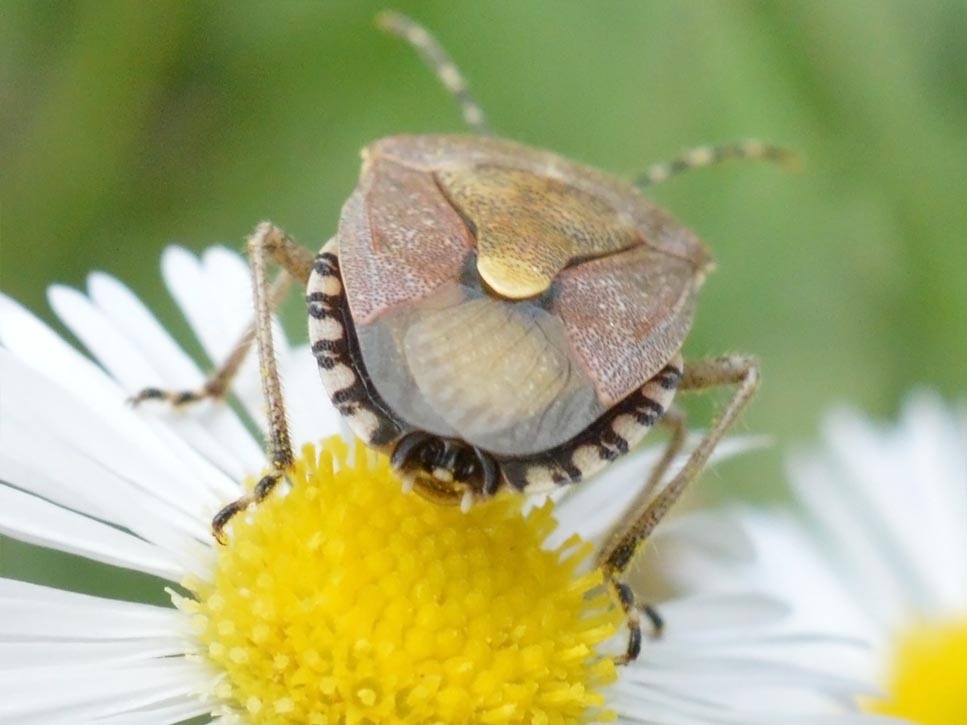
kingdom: Animalia
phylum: Arthropoda
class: Insecta
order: Hemiptera
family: Pentatomidae
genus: Dolycoris
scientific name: Dolycoris baccarum
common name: Sloe bug
